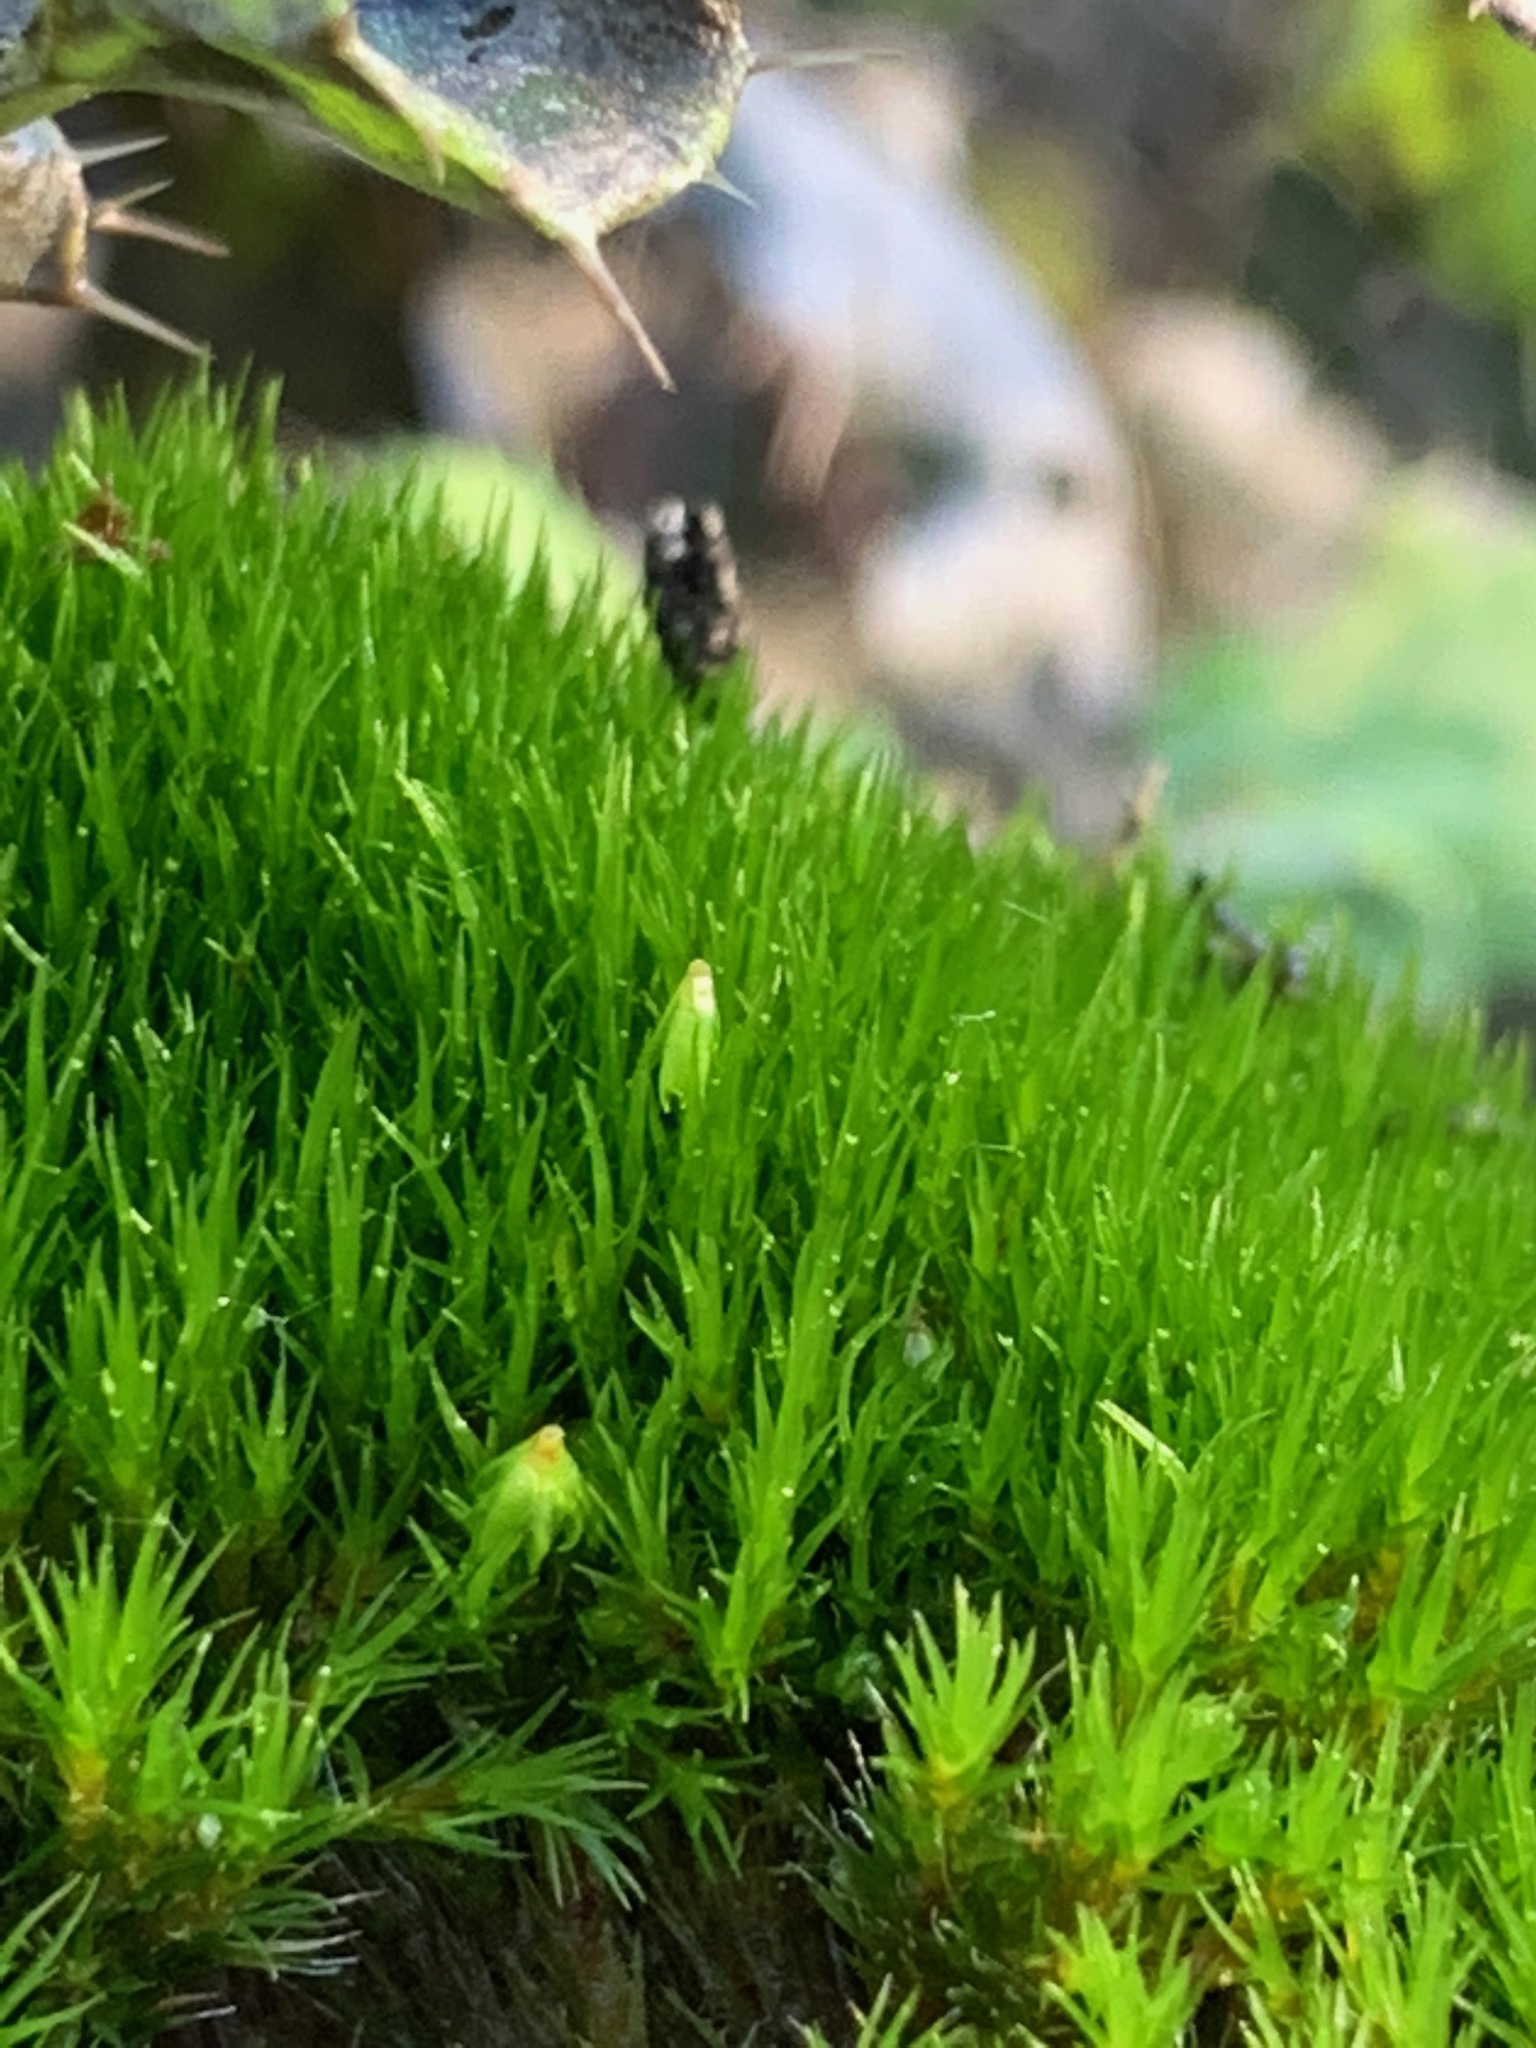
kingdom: Plantae
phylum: Bryophyta
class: Bryopsida
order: Dicranales
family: Leucobryaceae
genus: Campylopus
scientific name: Campylopus introflexus
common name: Heath star moss
